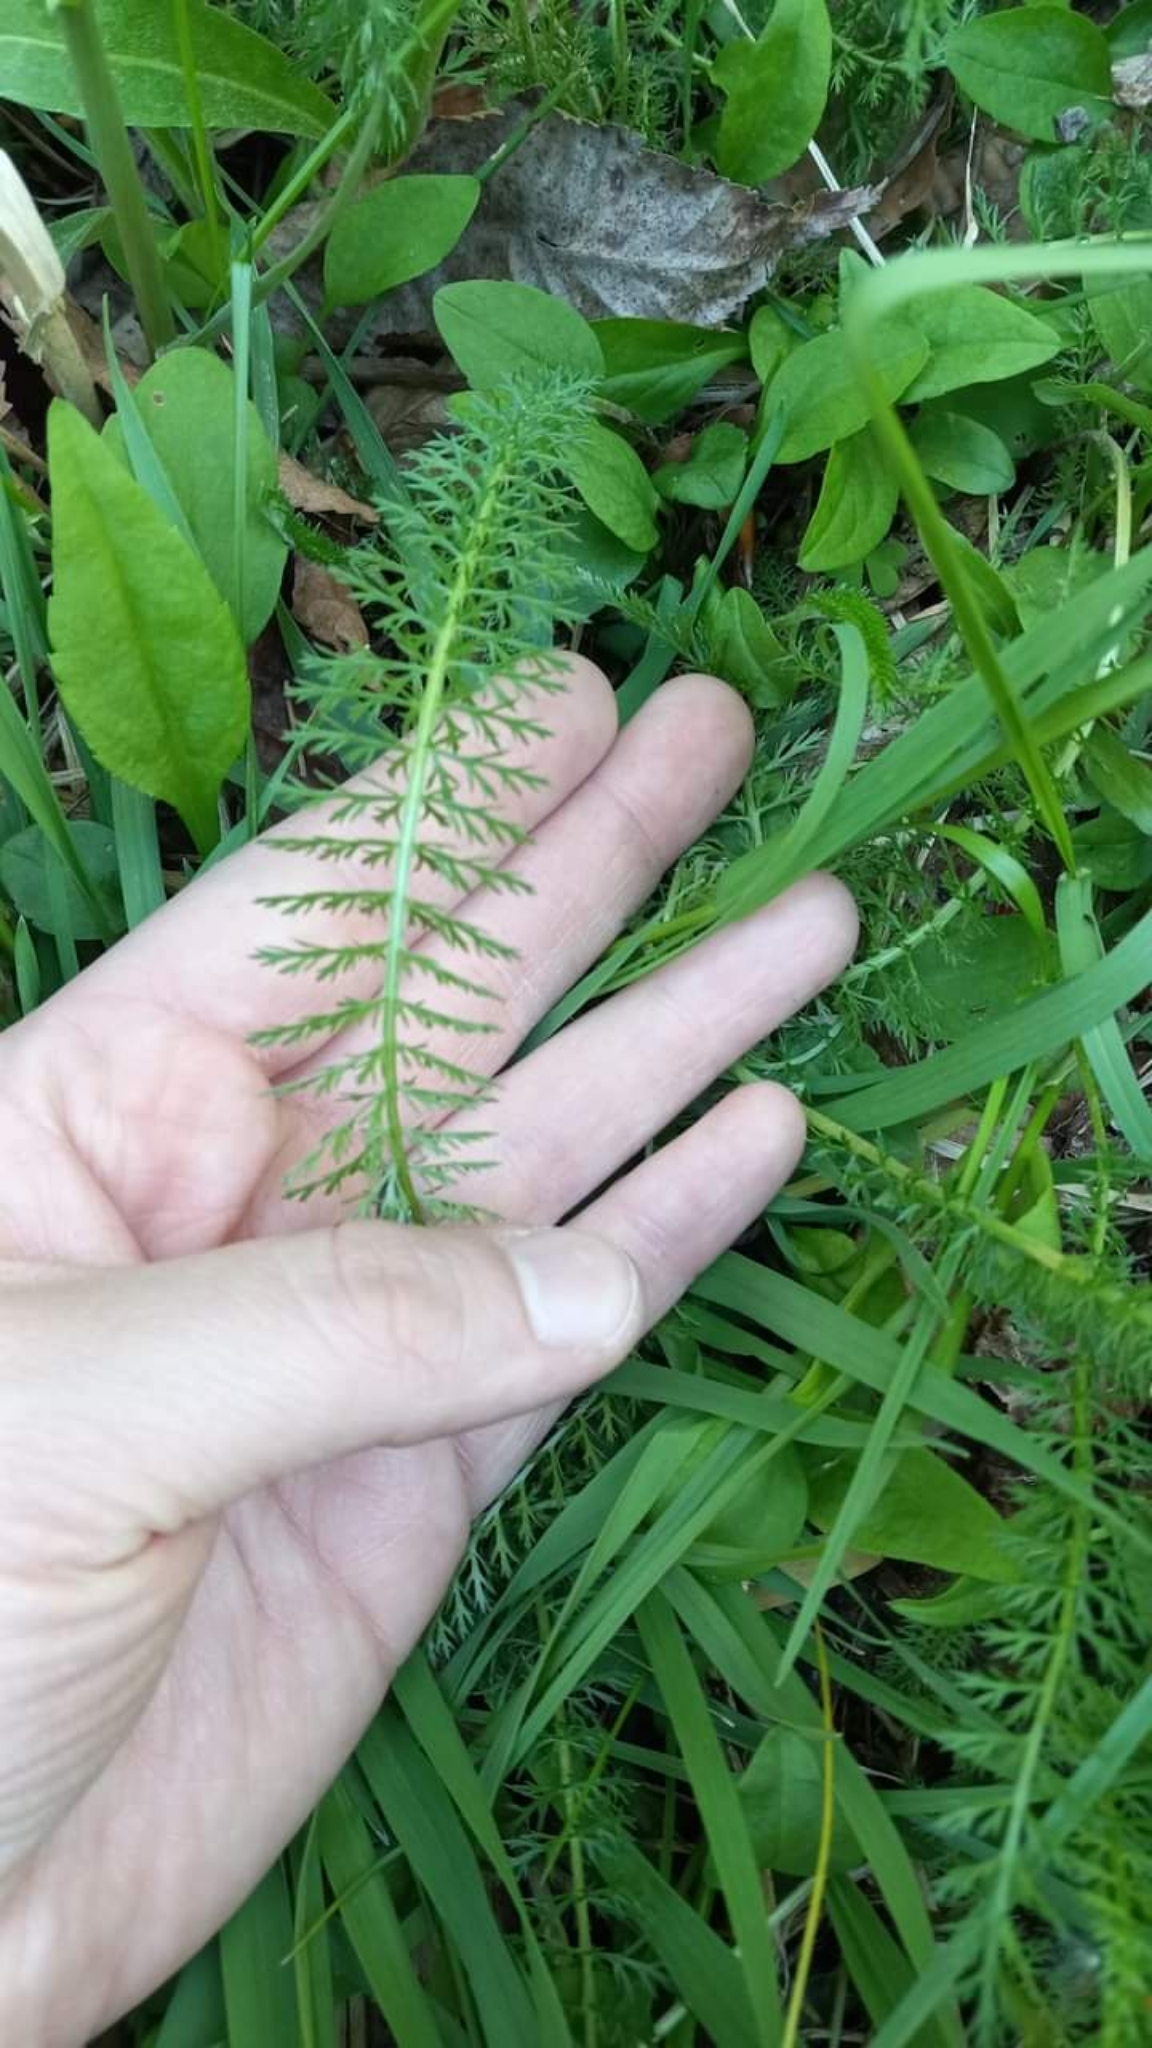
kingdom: Plantae
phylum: Tracheophyta
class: Magnoliopsida
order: Asterales
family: Asteraceae
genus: Achillea
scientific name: Achillea millefolium
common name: Yarrow
